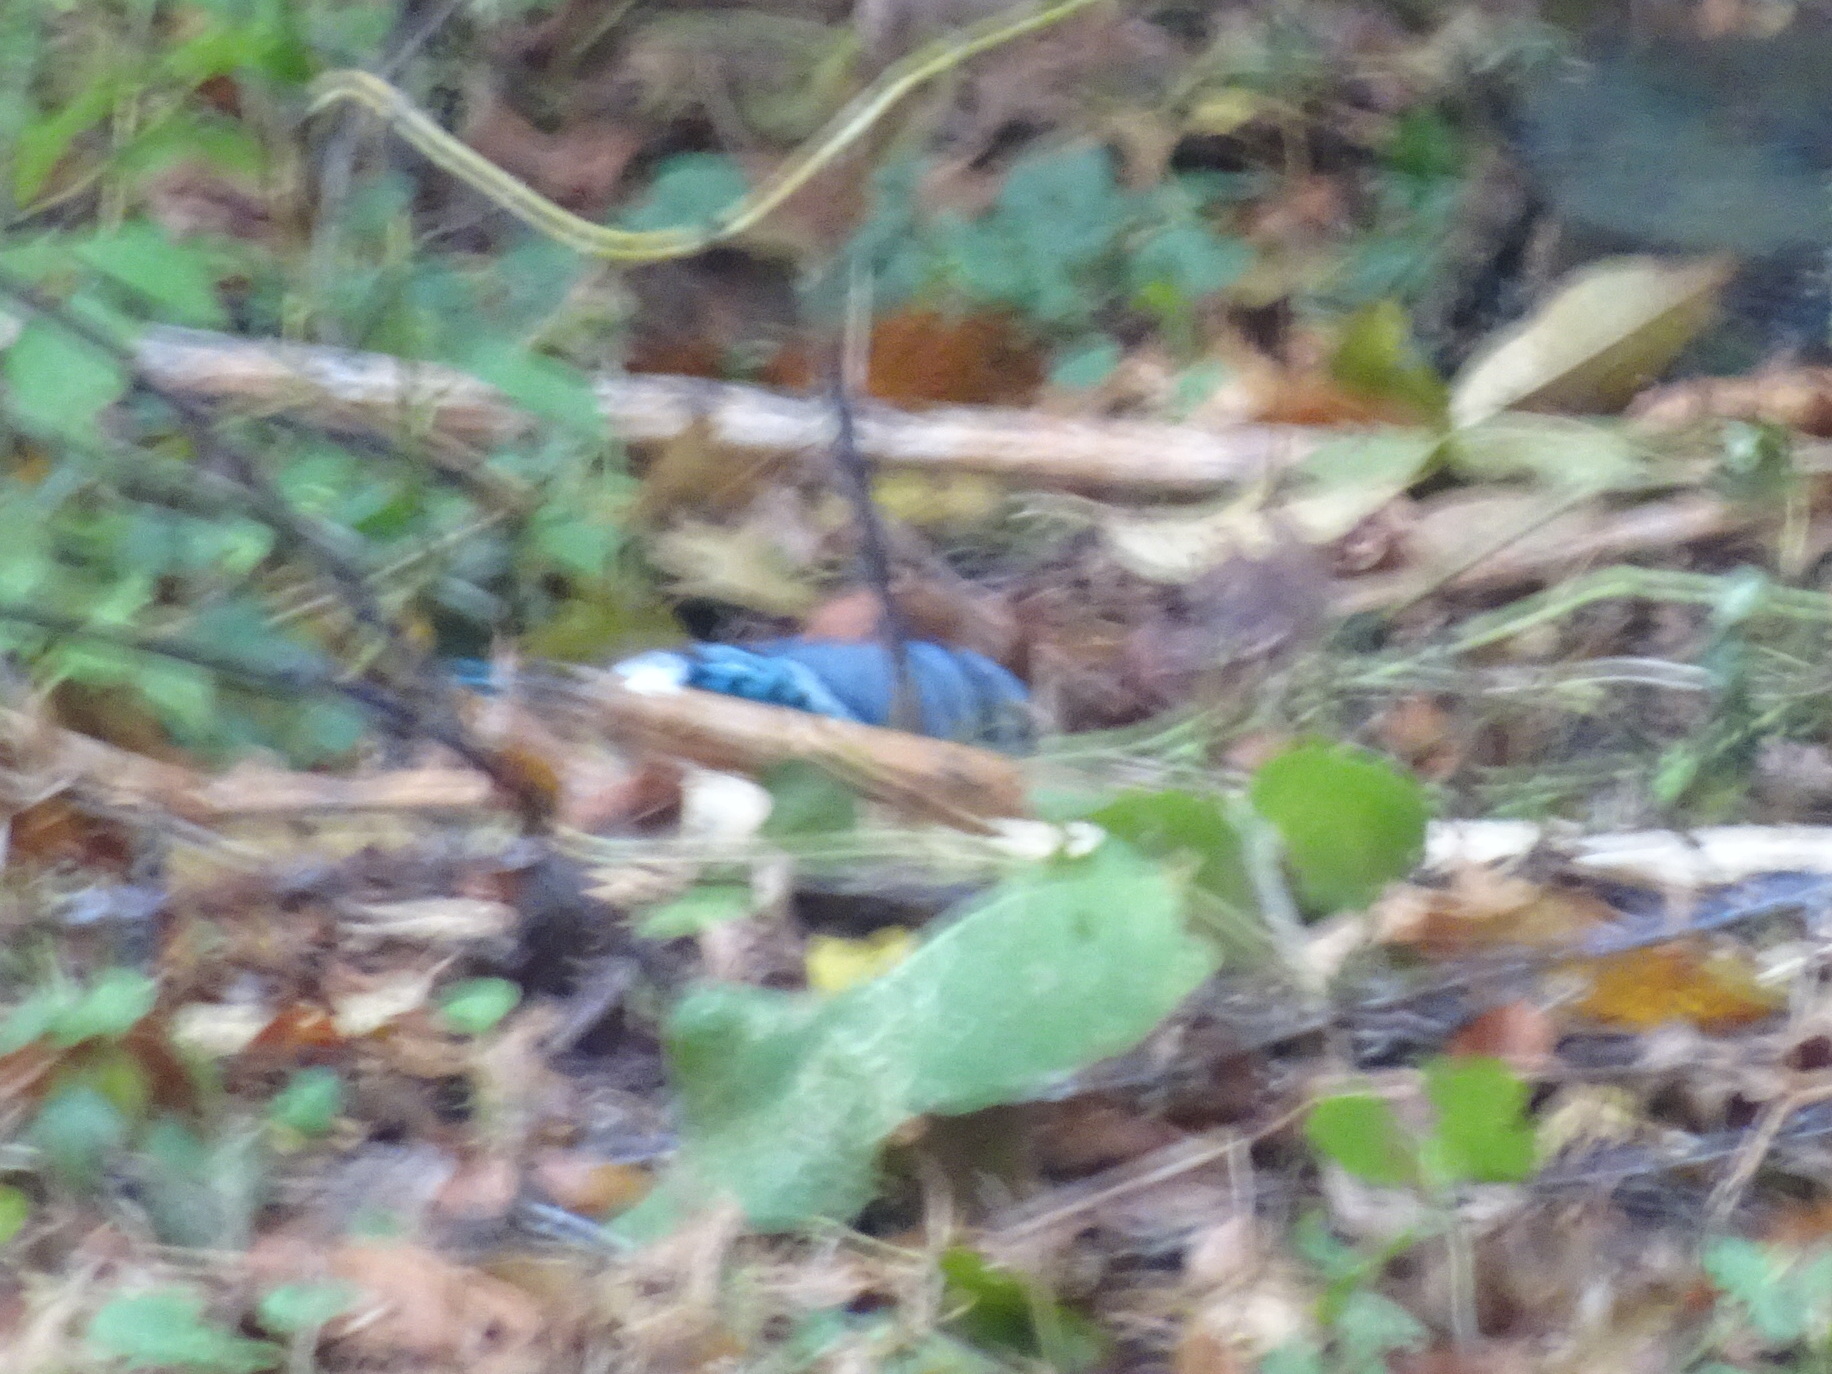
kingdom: Animalia
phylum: Chordata
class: Aves
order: Passeriformes
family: Corvidae
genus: Cyanocitta
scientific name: Cyanocitta cristata
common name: Blue jay
